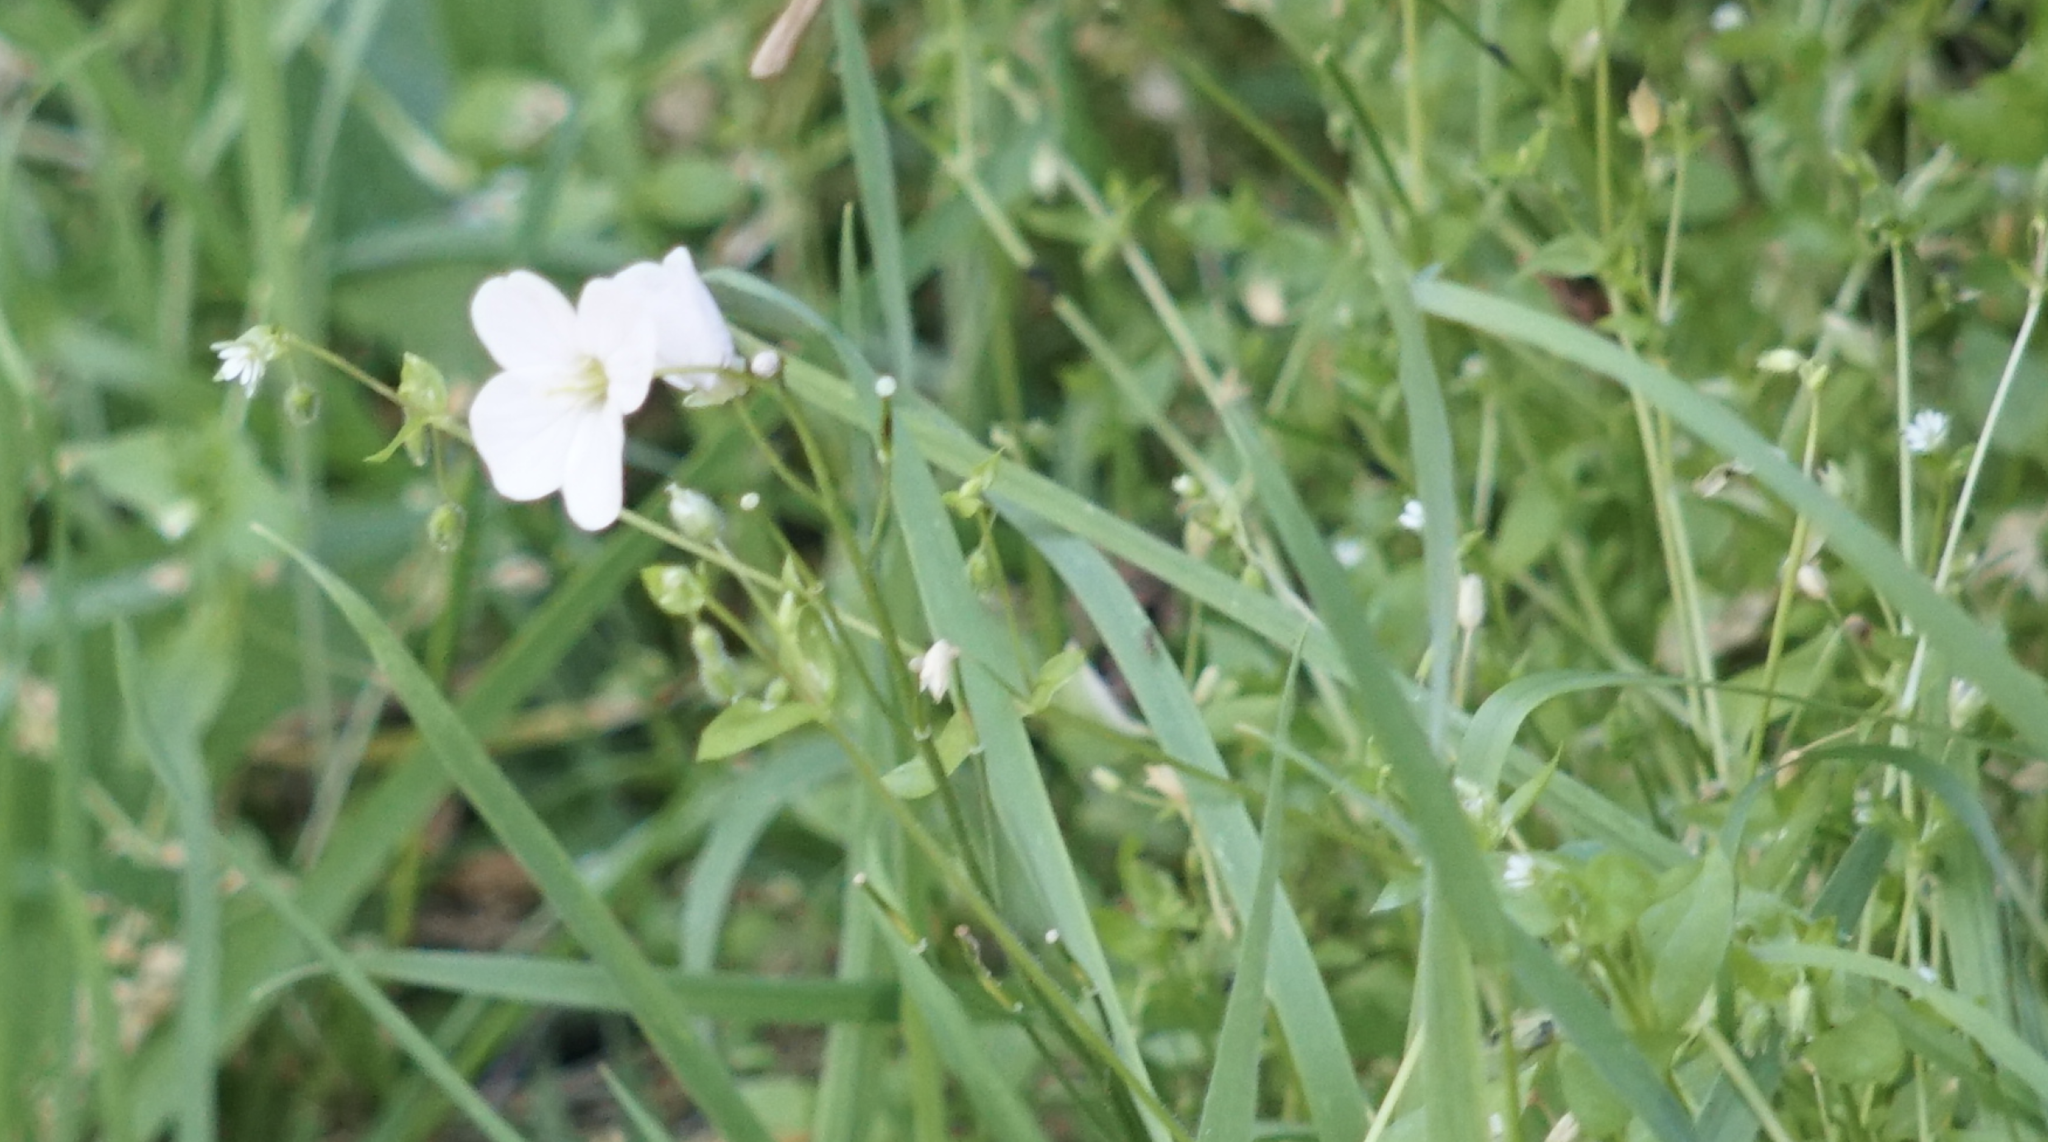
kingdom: Plantae
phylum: Tracheophyta
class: Magnoliopsida
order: Brassicales
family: Brassicaceae
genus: Cardamine
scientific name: Cardamine californica
